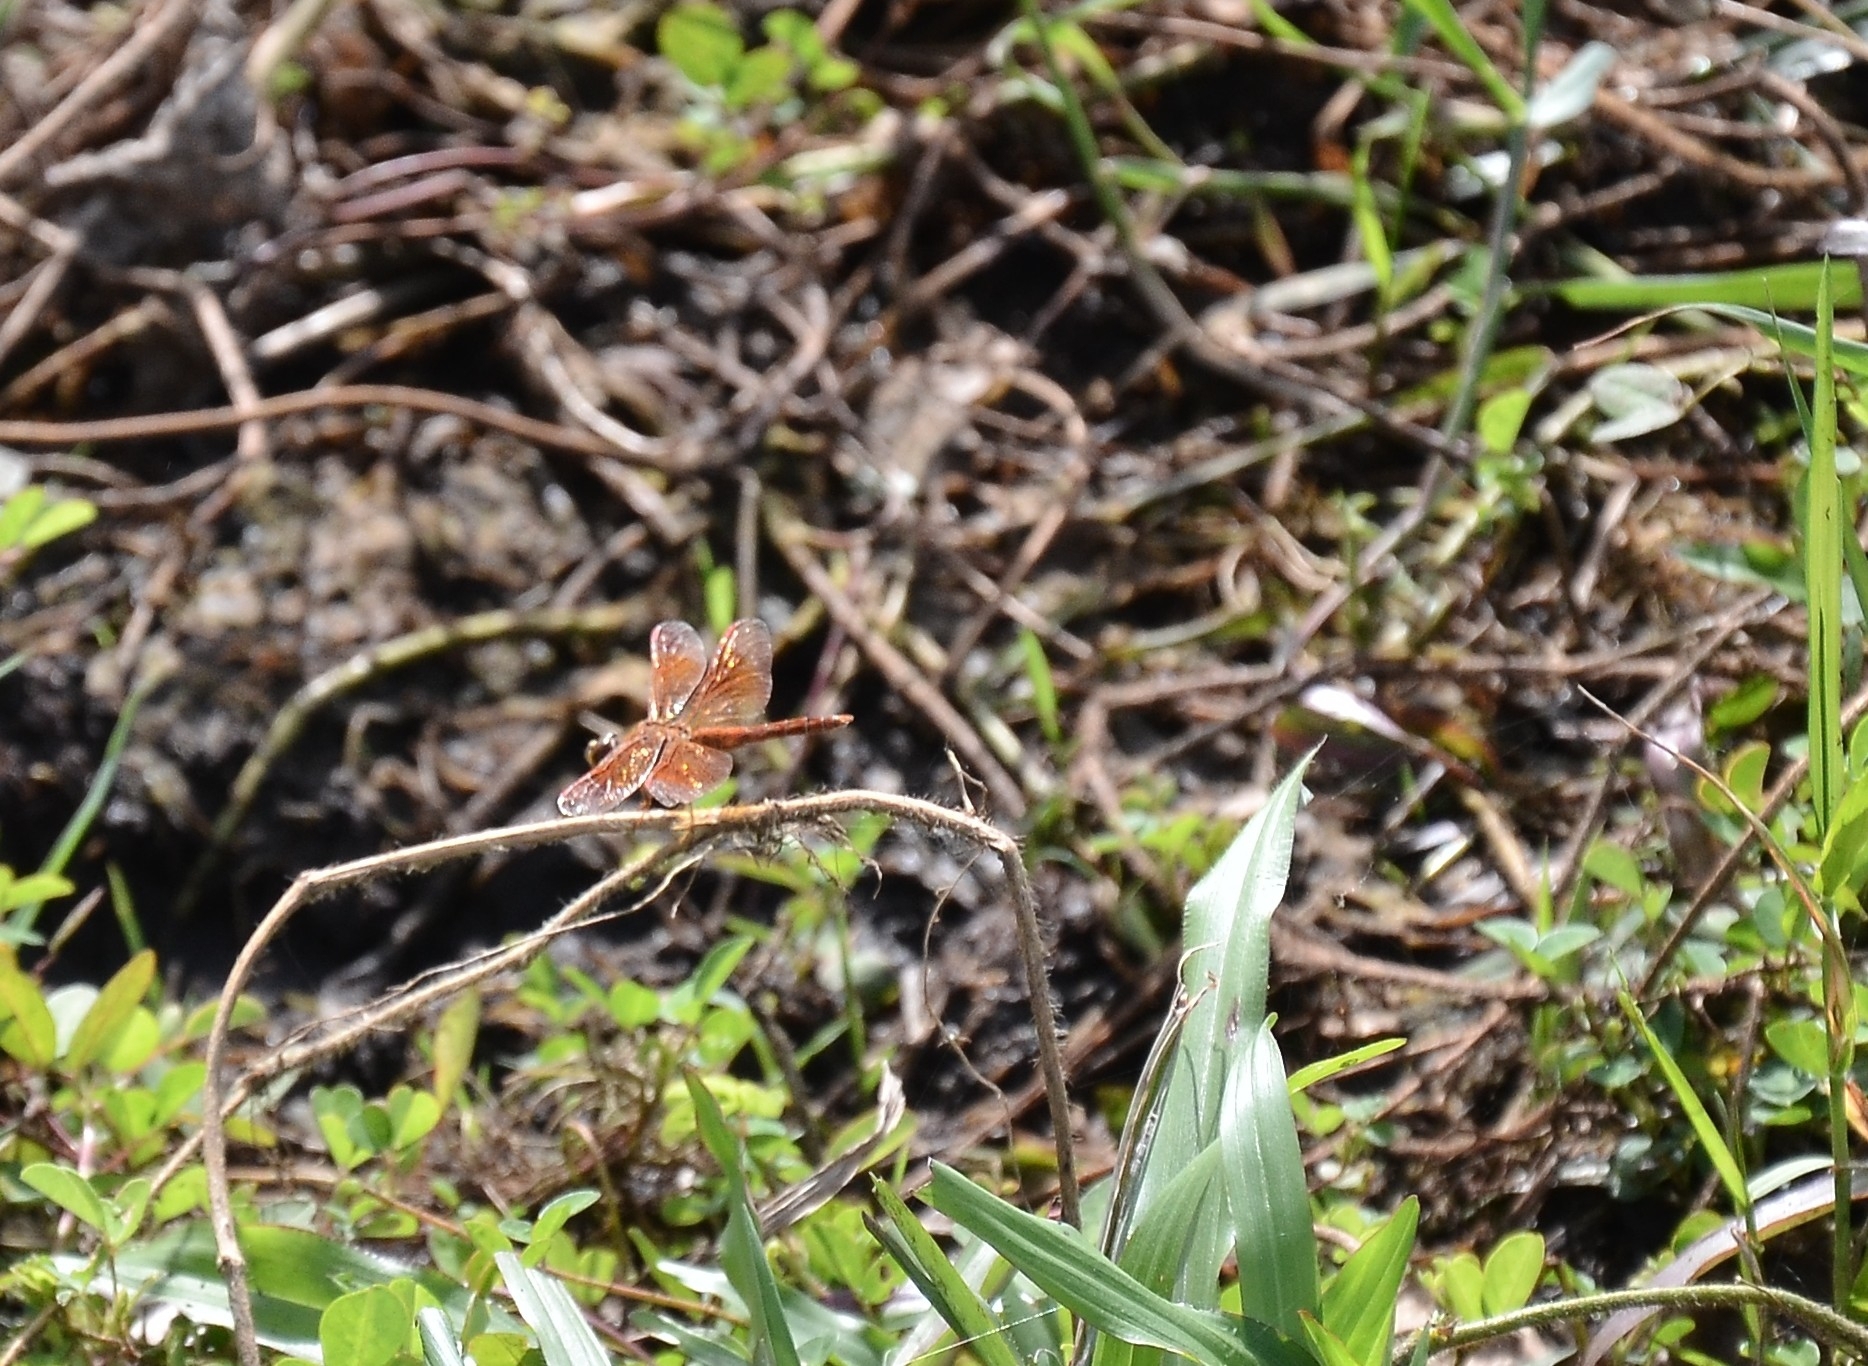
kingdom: Animalia
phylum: Arthropoda
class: Insecta
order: Odonata
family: Libellulidae
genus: Brachythemis
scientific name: Brachythemis contaminata
